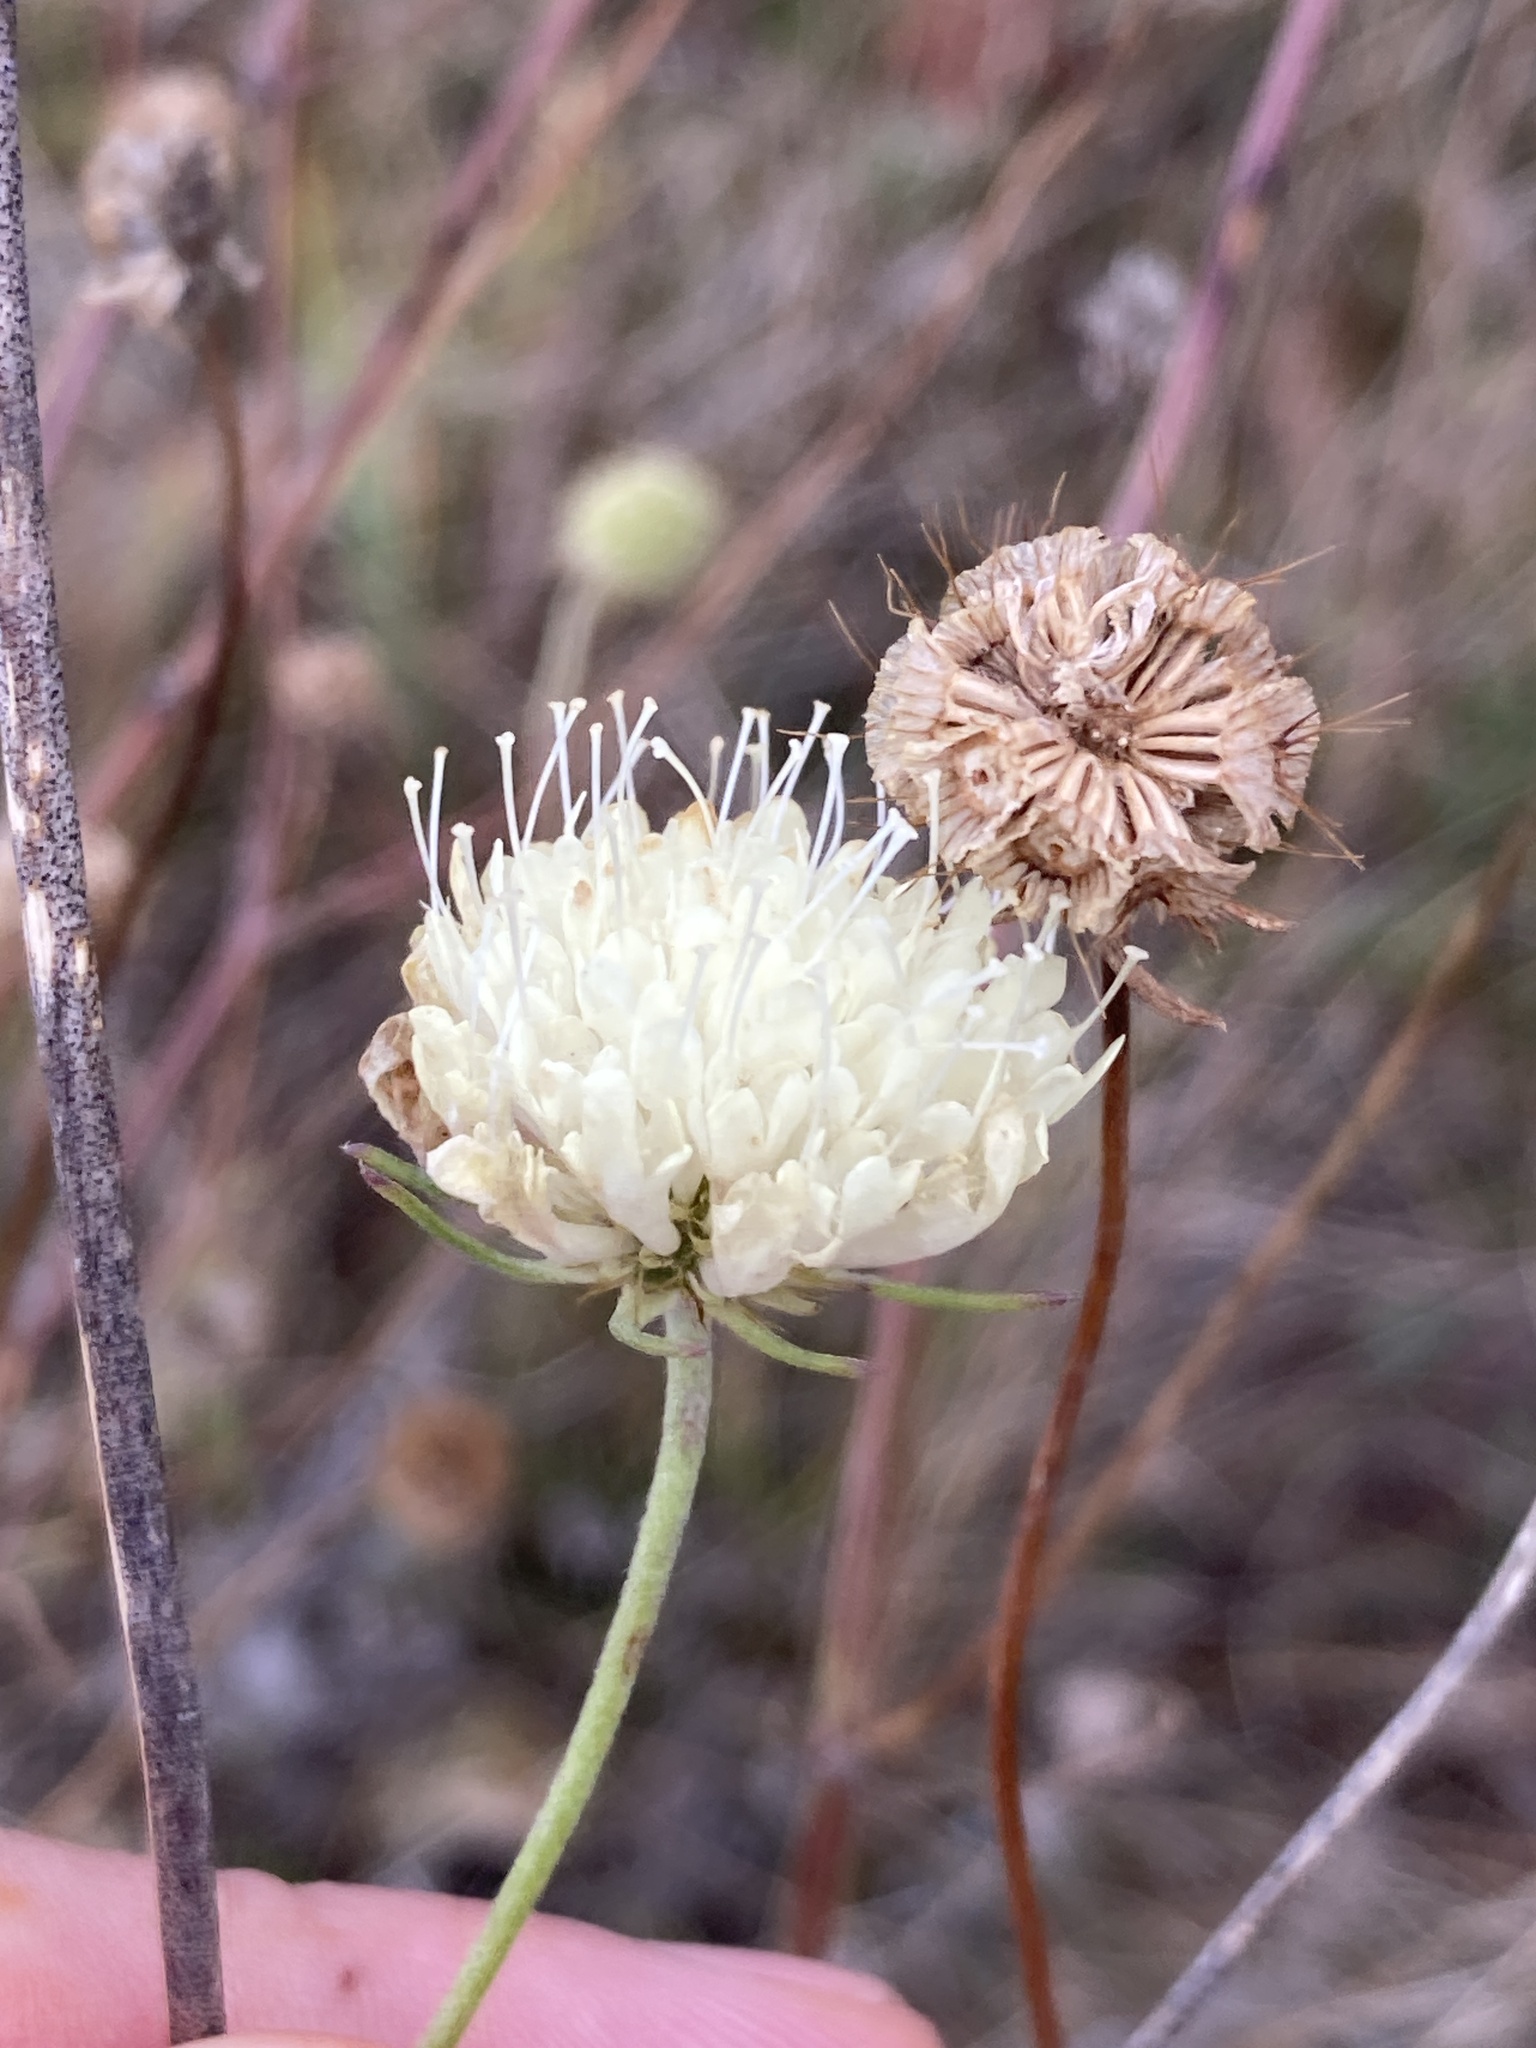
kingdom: Plantae
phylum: Tracheophyta
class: Magnoliopsida
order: Dipsacales
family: Caprifoliaceae
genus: Scabiosa
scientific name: Scabiosa ochroleuca
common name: Cream pincushions
